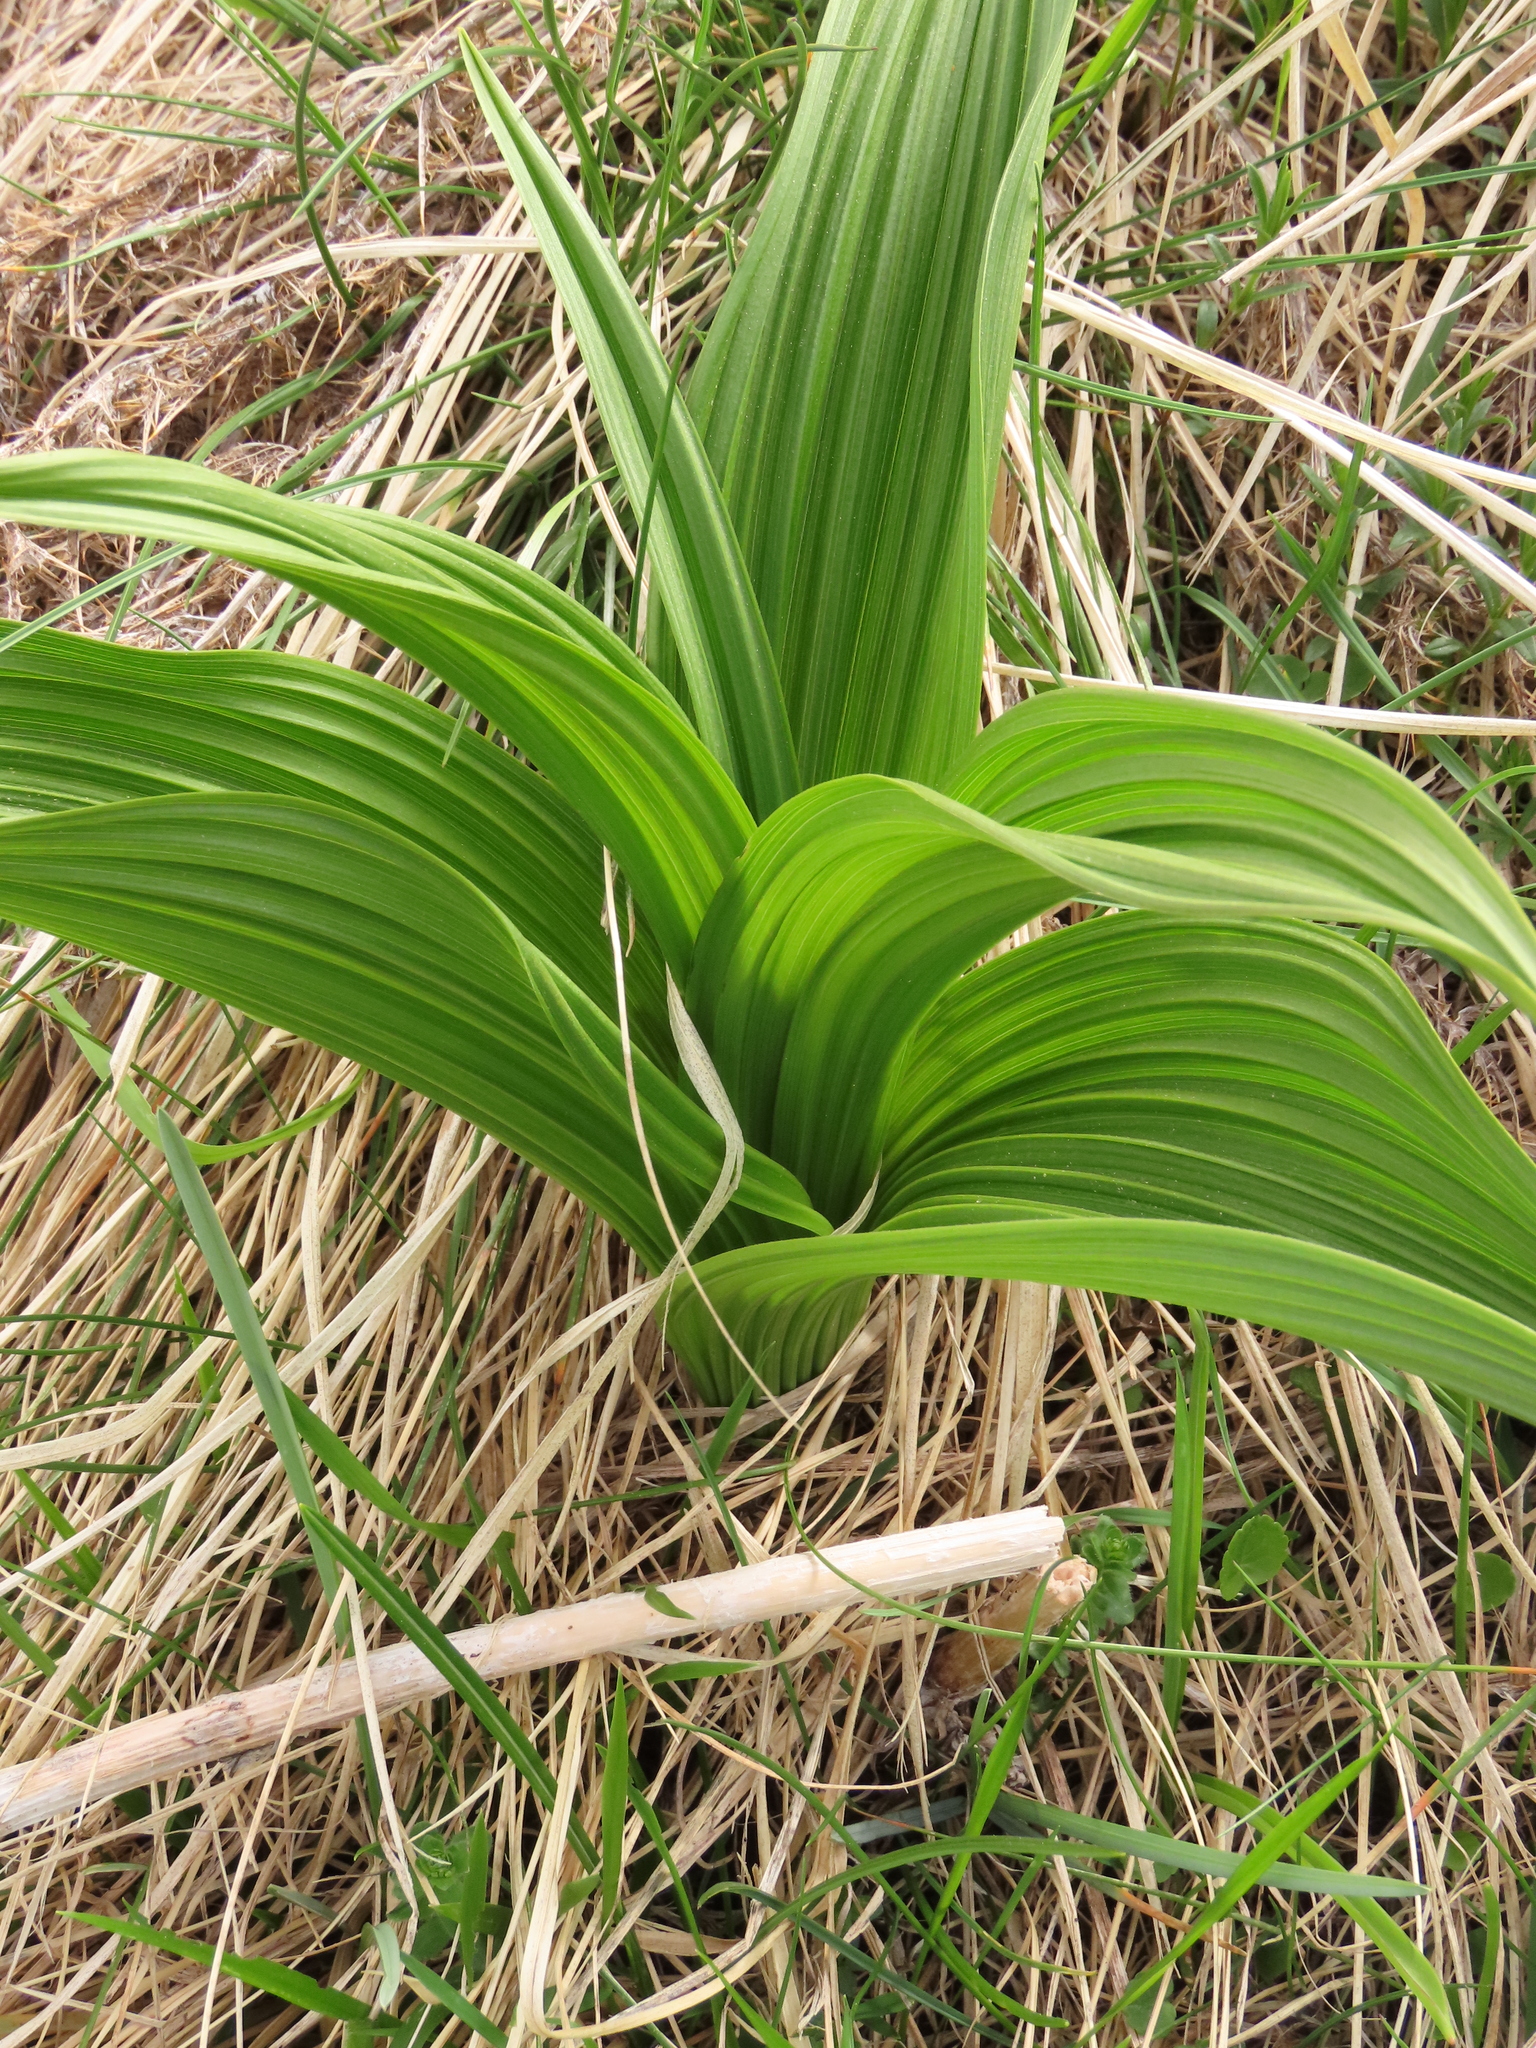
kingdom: Plantae
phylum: Tracheophyta
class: Liliopsida
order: Liliales
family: Melanthiaceae
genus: Veratrum
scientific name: Veratrum album
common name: White veratrum
